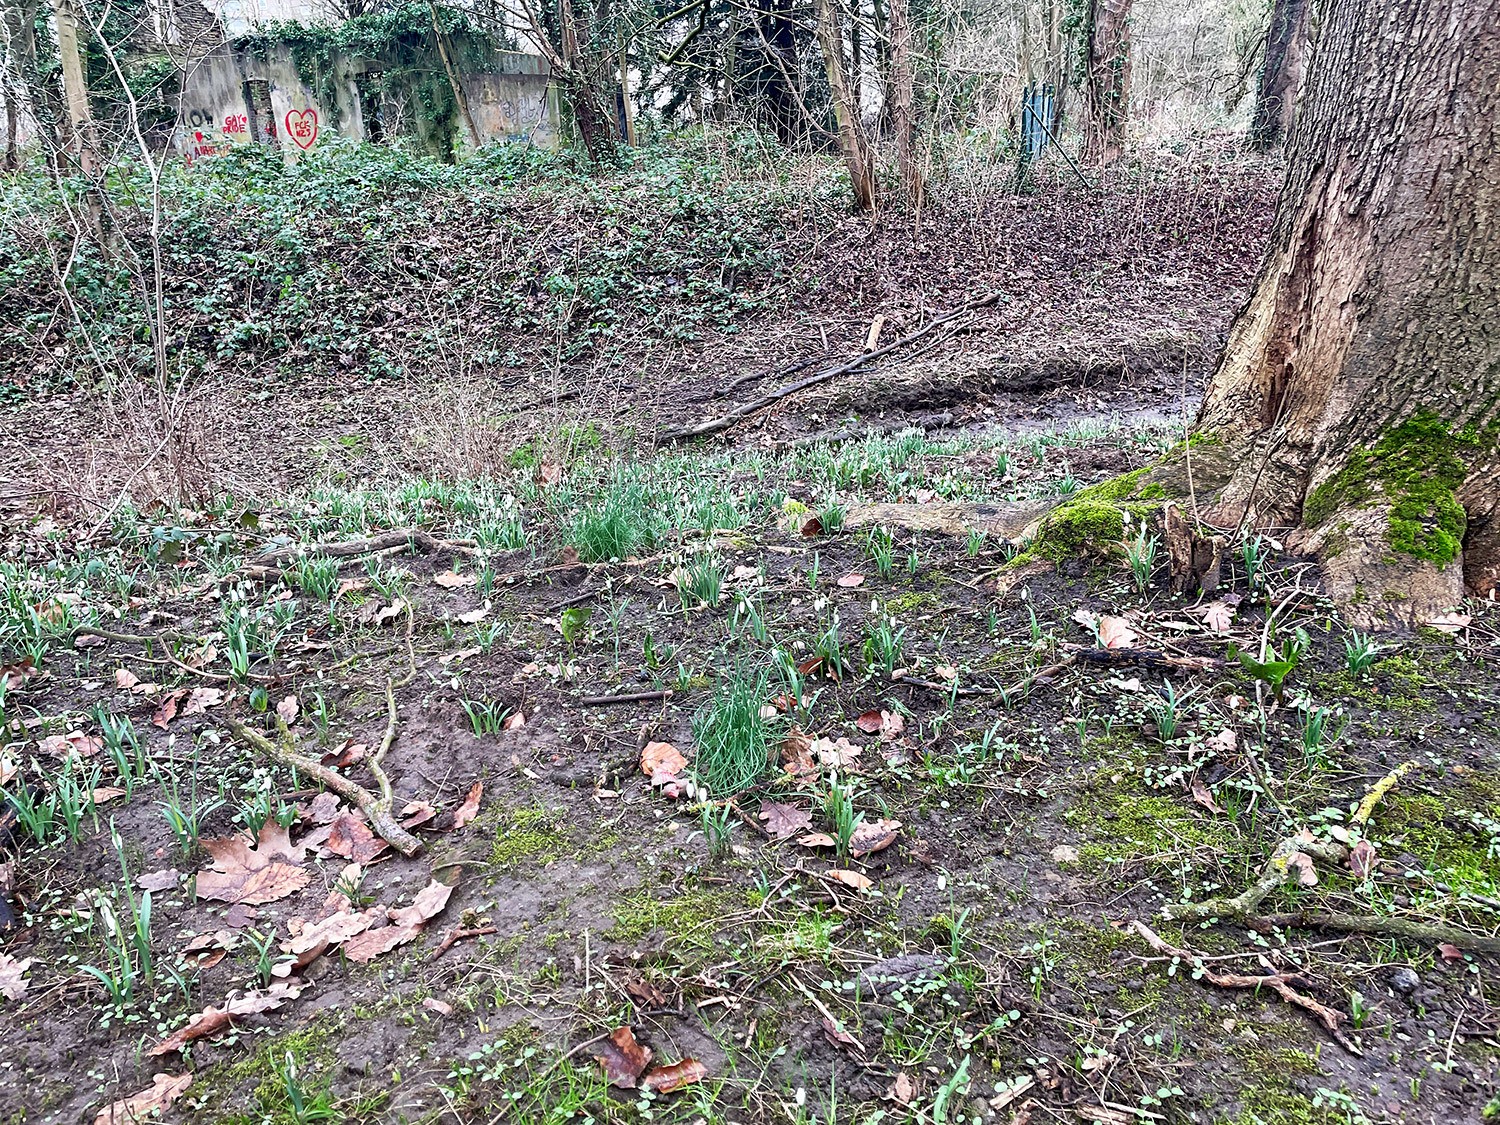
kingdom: Plantae
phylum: Tracheophyta
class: Liliopsida
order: Asparagales
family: Amaryllidaceae
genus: Galanthus
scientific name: Galanthus nivalis
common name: Snowdrop
